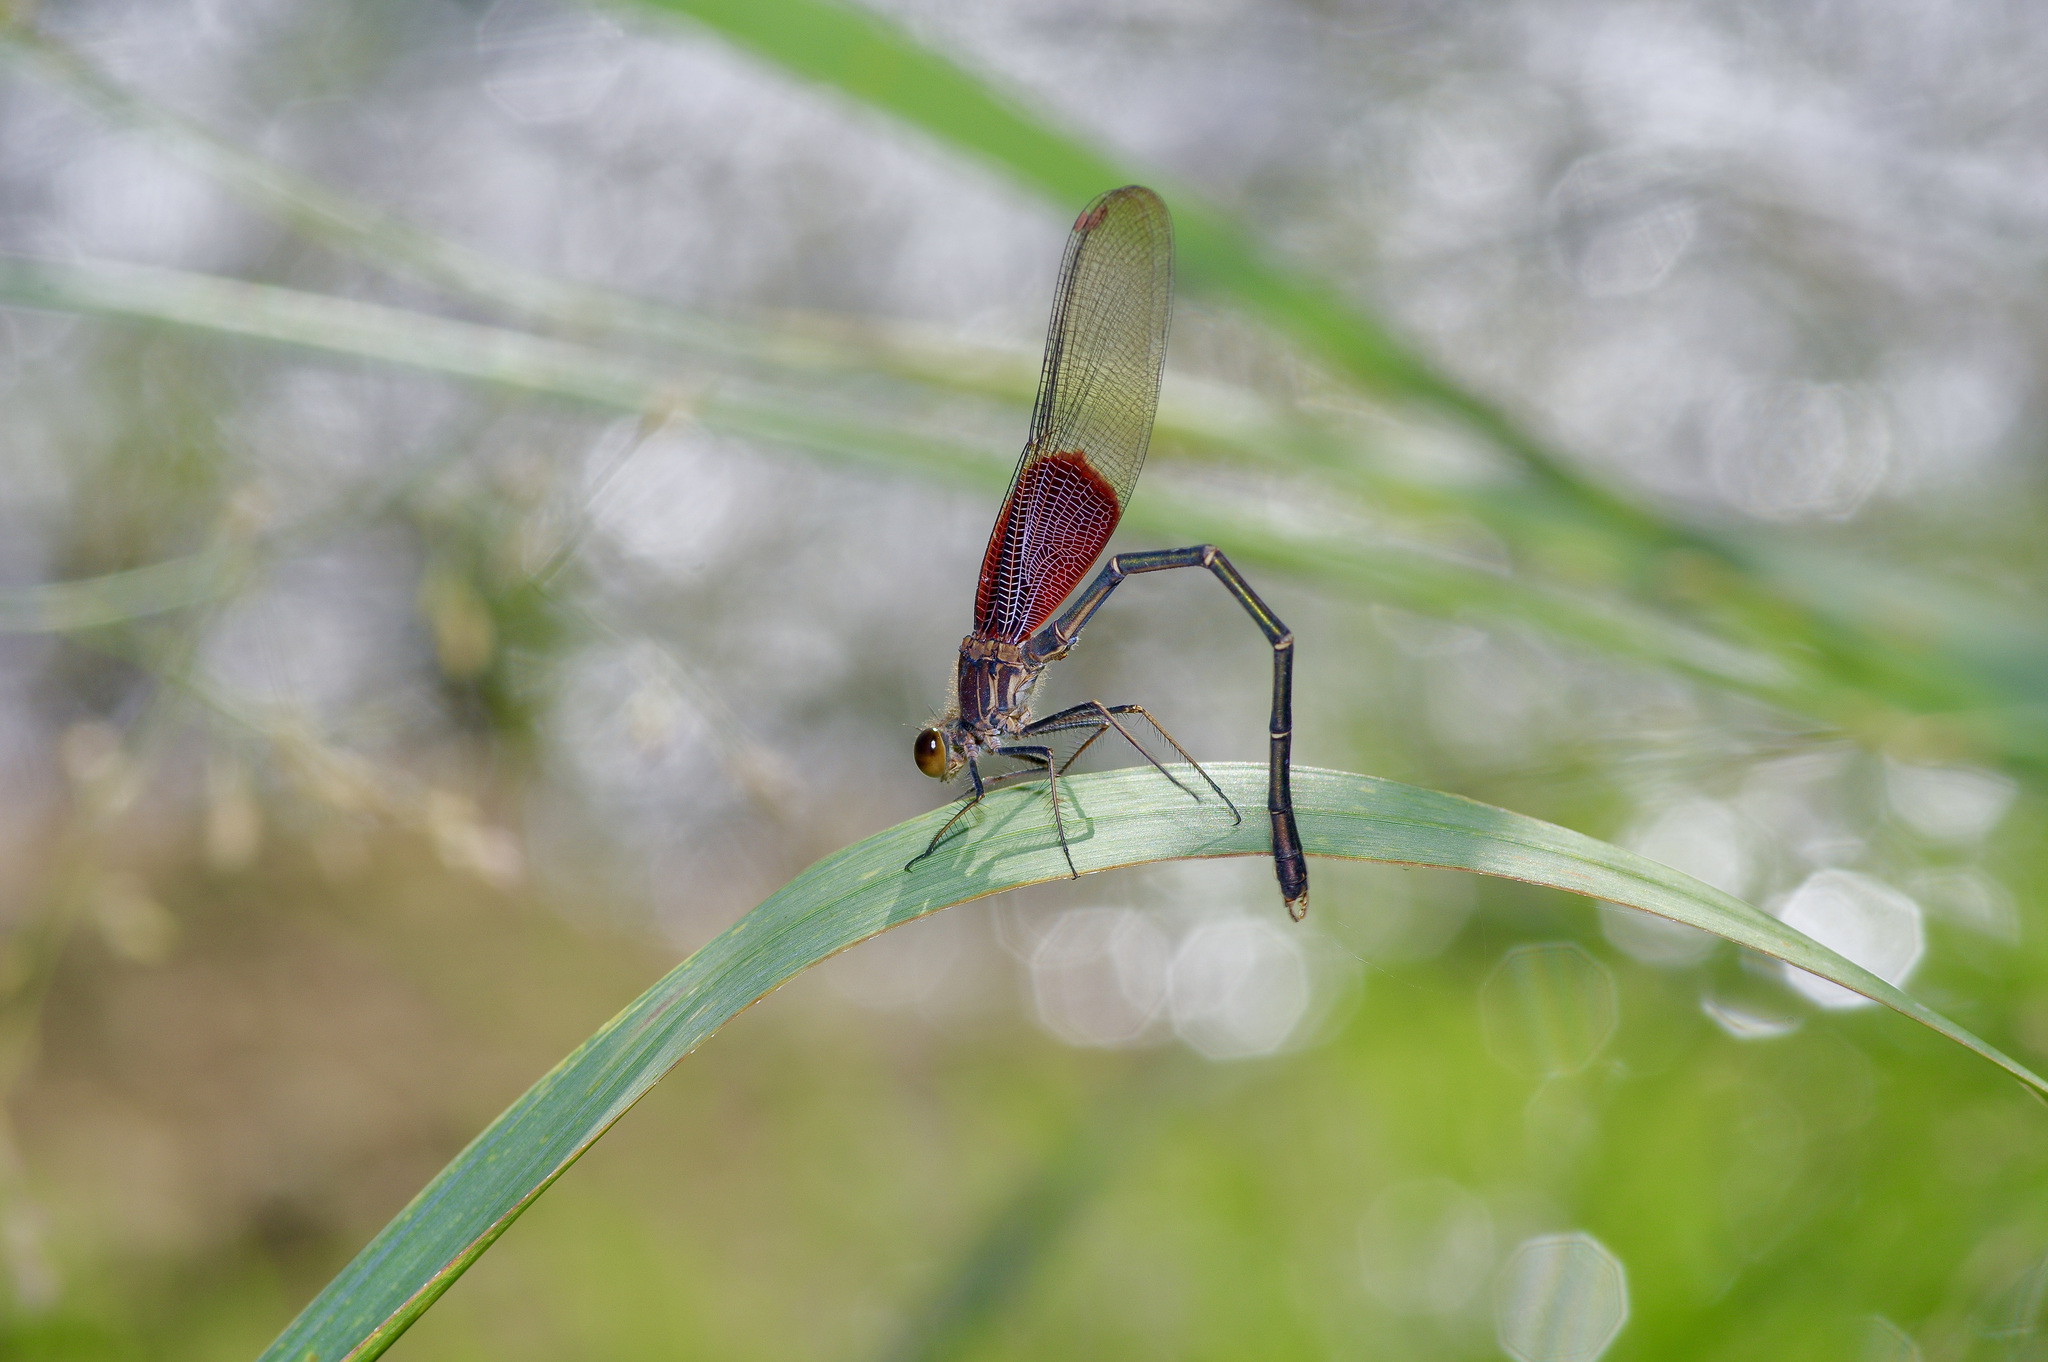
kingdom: Animalia
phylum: Arthropoda
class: Insecta
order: Odonata
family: Calopterygidae
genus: Hetaerina
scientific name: Hetaerina americana
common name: American rubyspot
